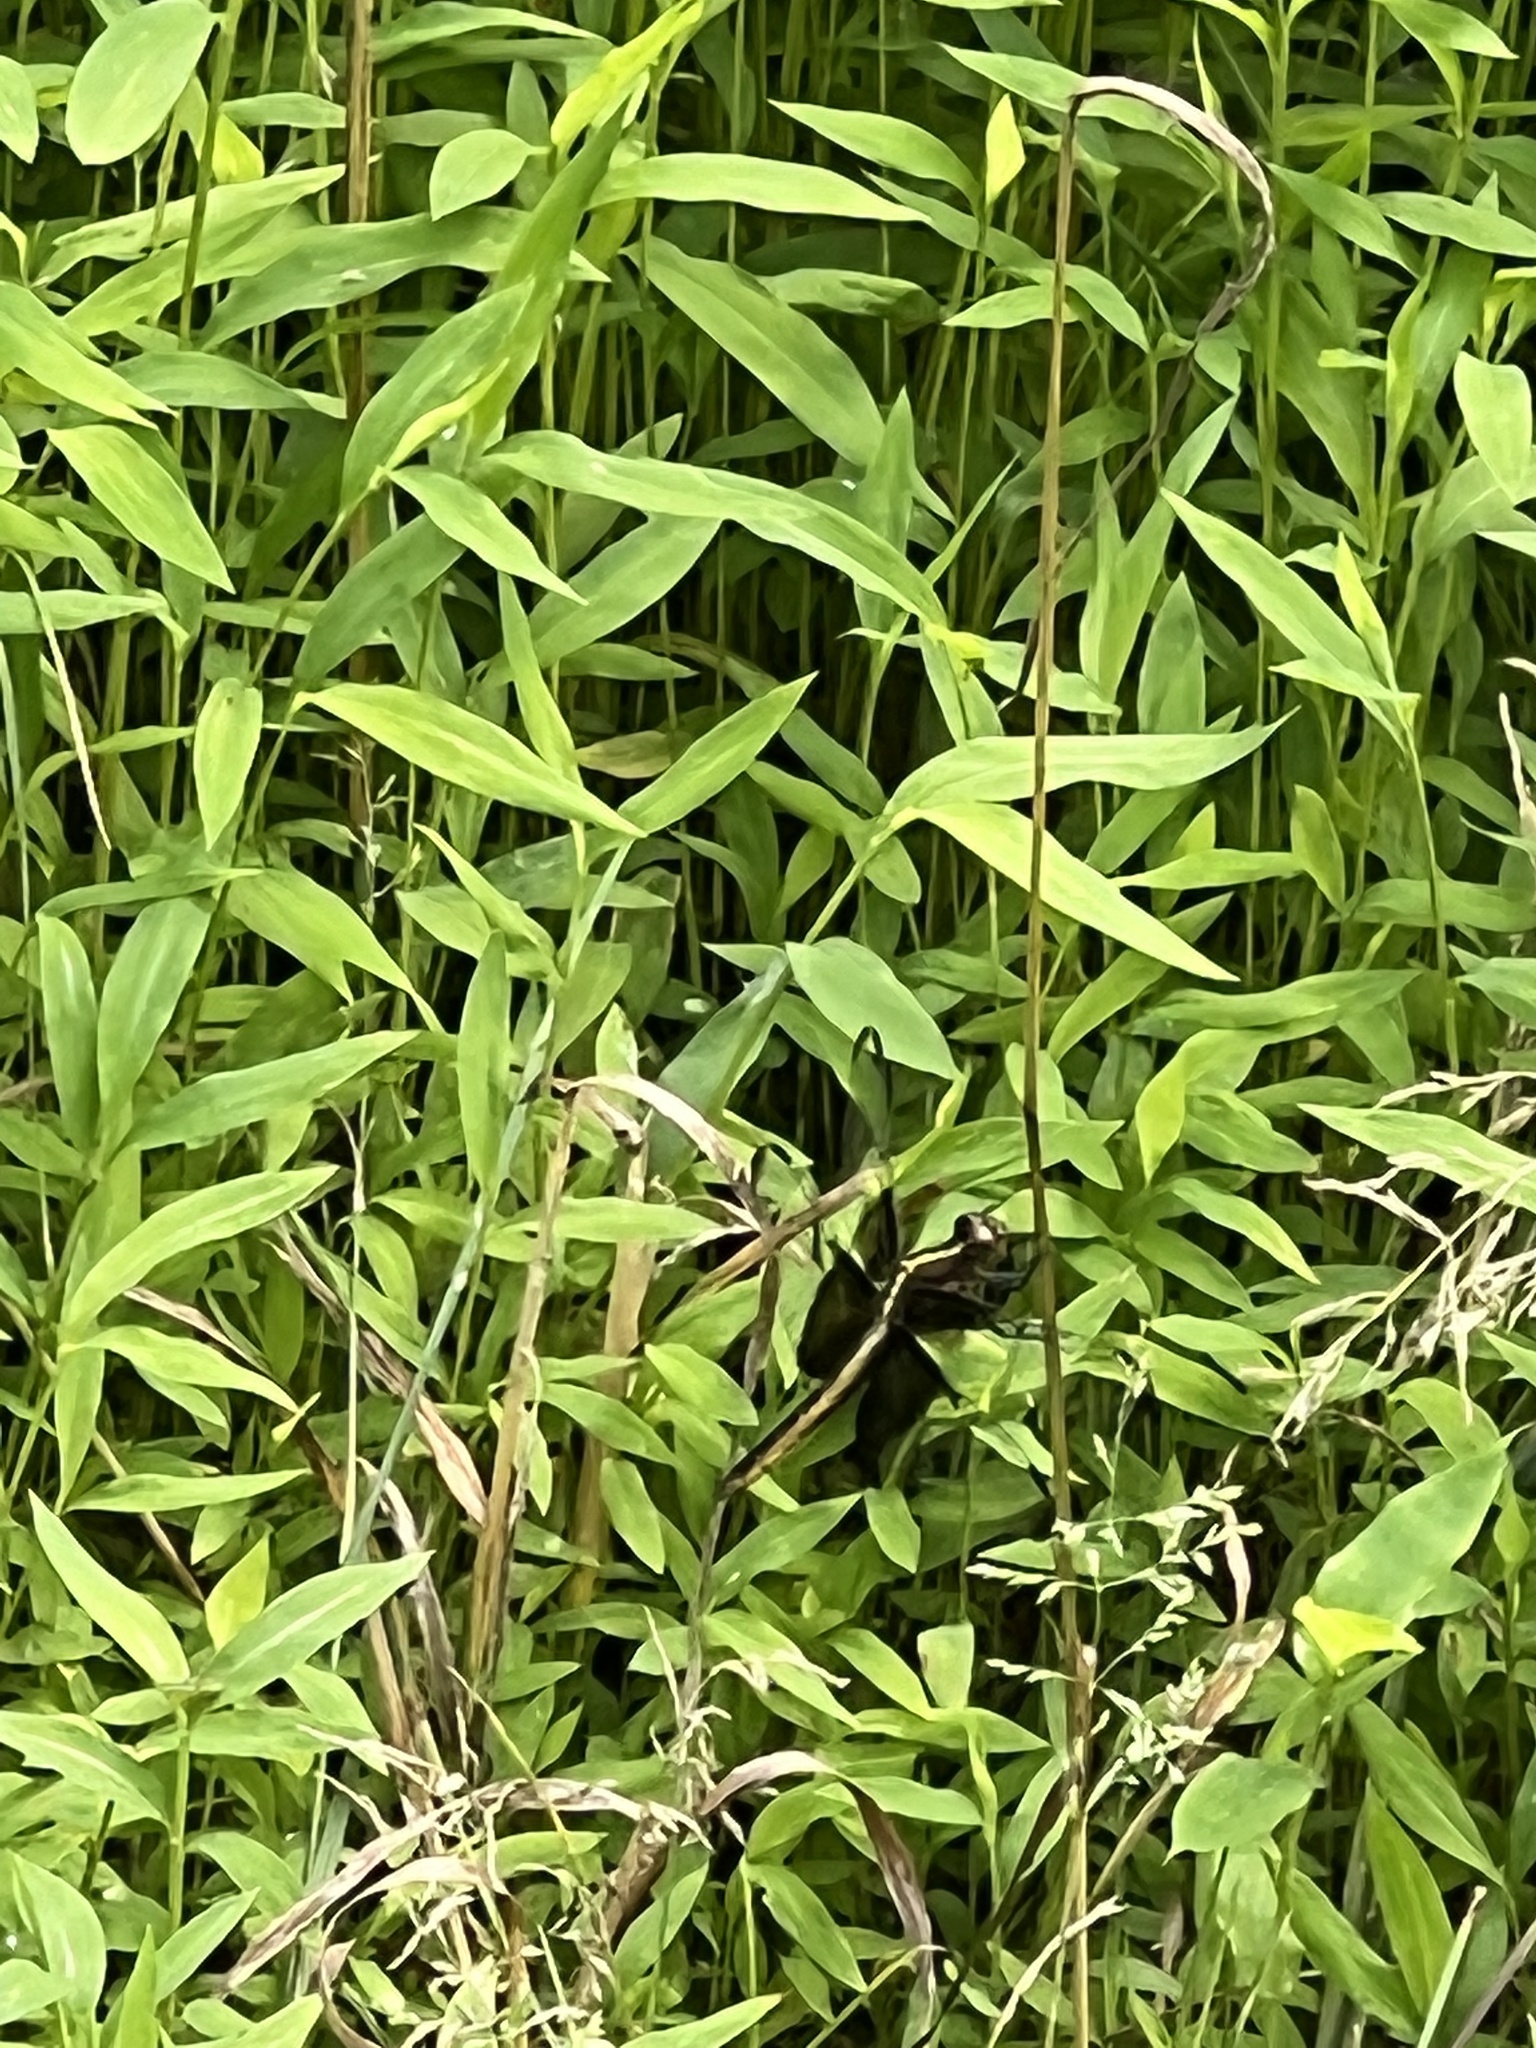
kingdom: Animalia
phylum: Arthropoda
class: Insecta
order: Odonata
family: Libellulidae
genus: Libellula
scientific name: Libellula luctuosa
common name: Widow skimmer
